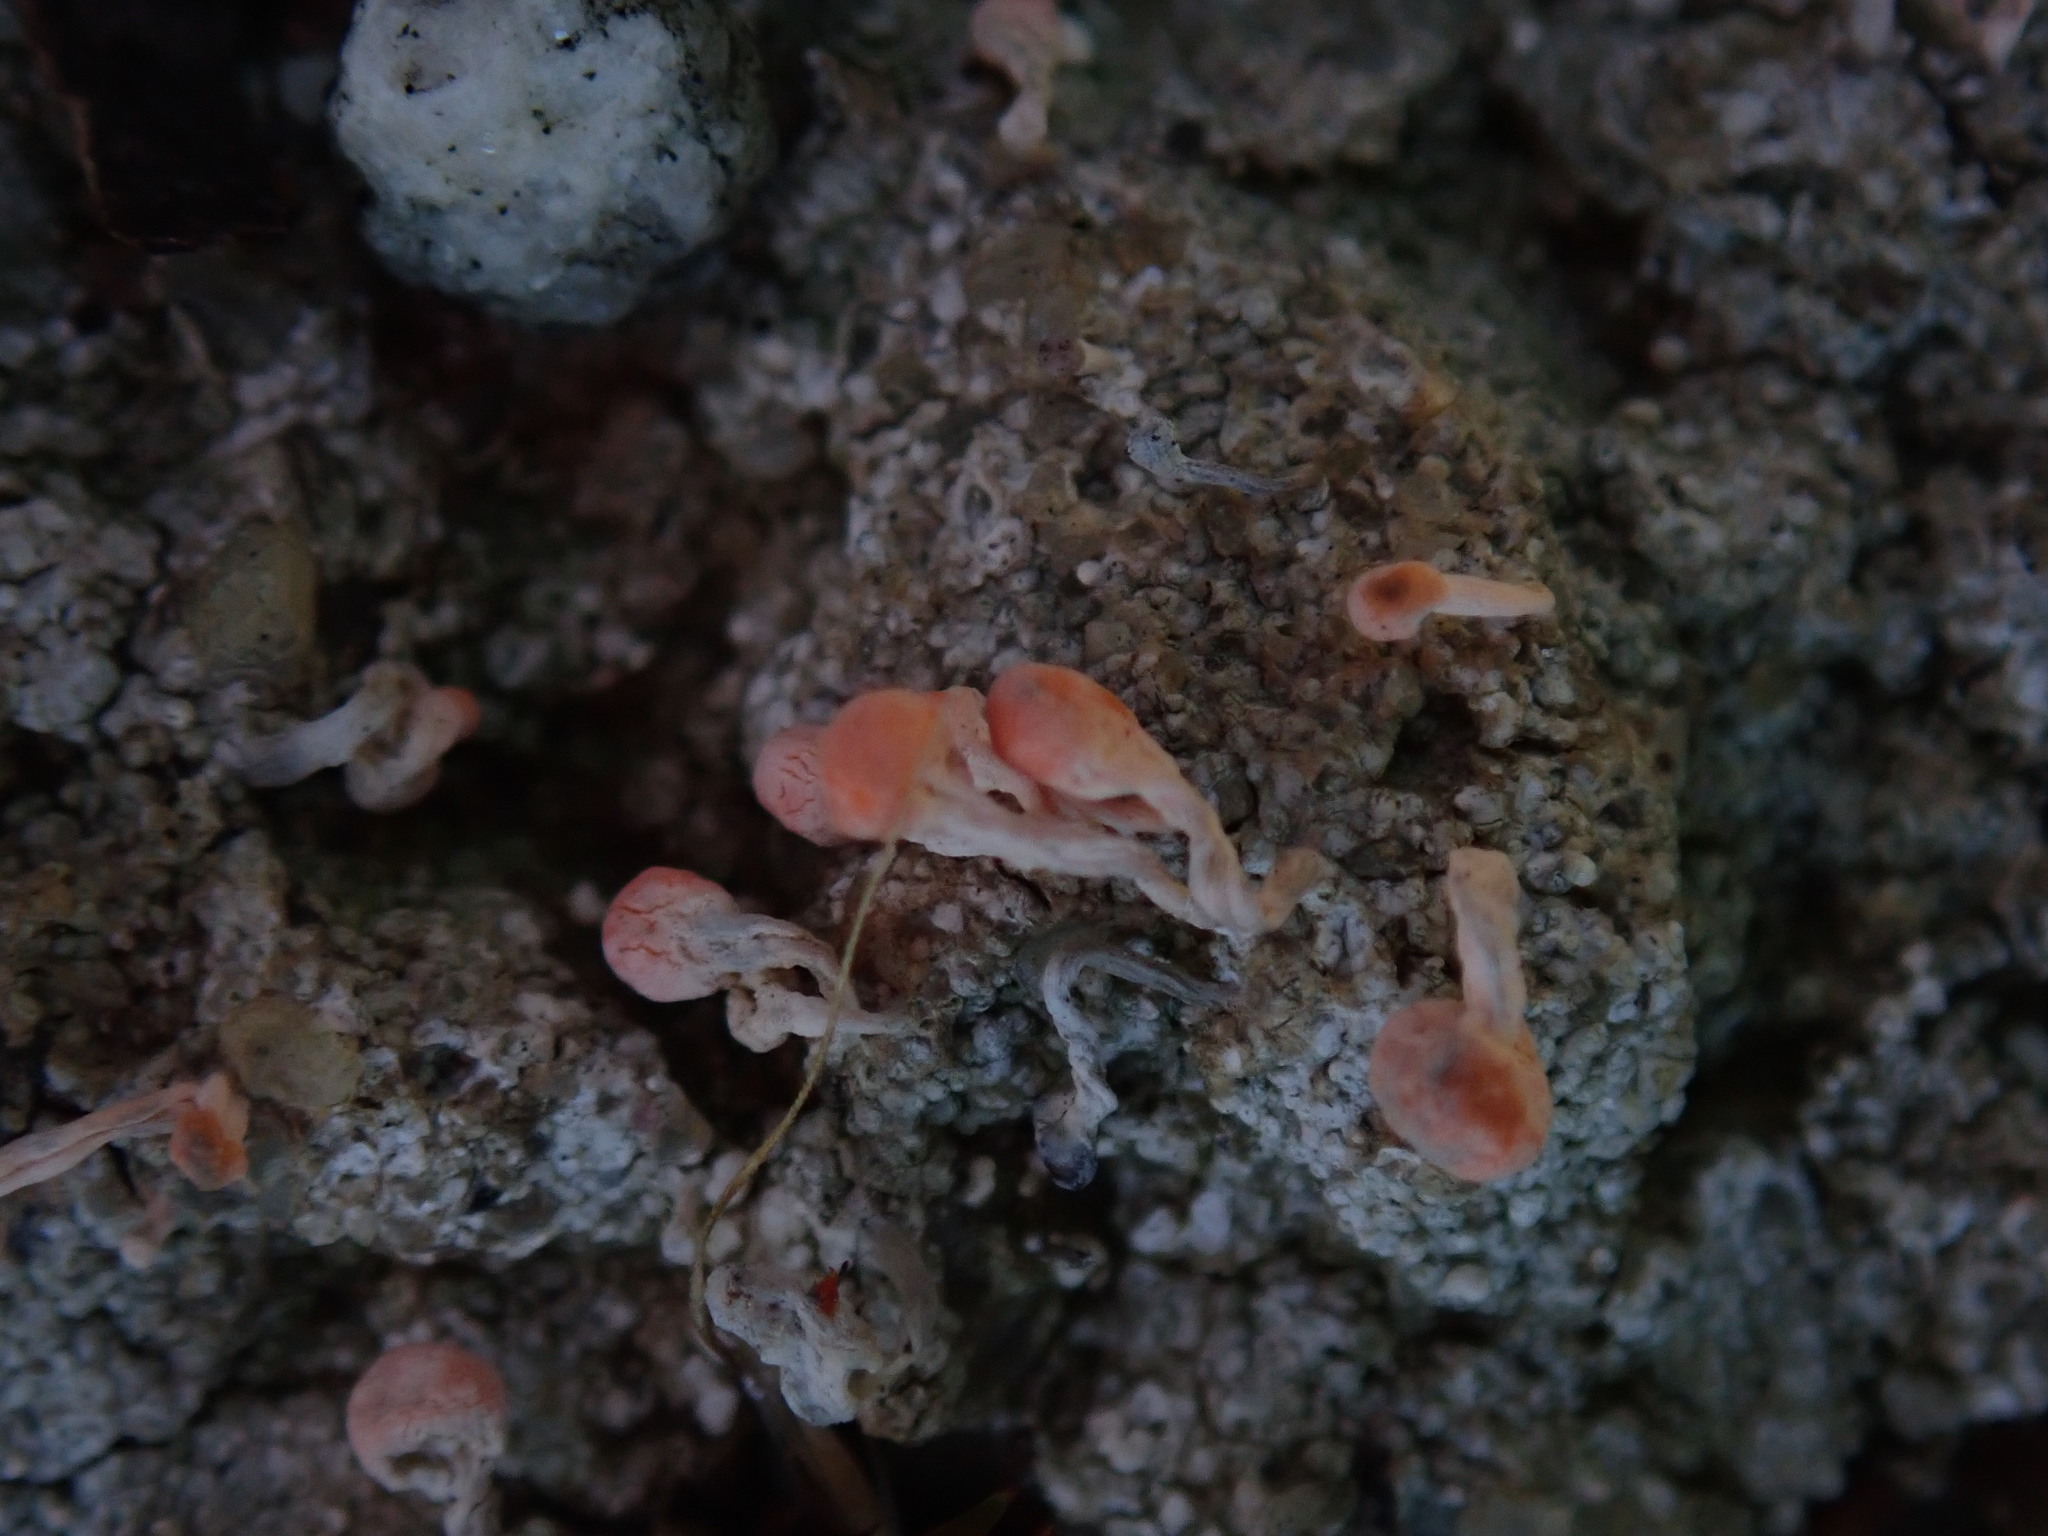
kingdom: Fungi
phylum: Ascomycota
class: Lecanoromycetes
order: Pertusariales
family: Icmadophilaceae
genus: Dibaeis
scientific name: Dibaeis baeomyces
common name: Pink earth lichen
